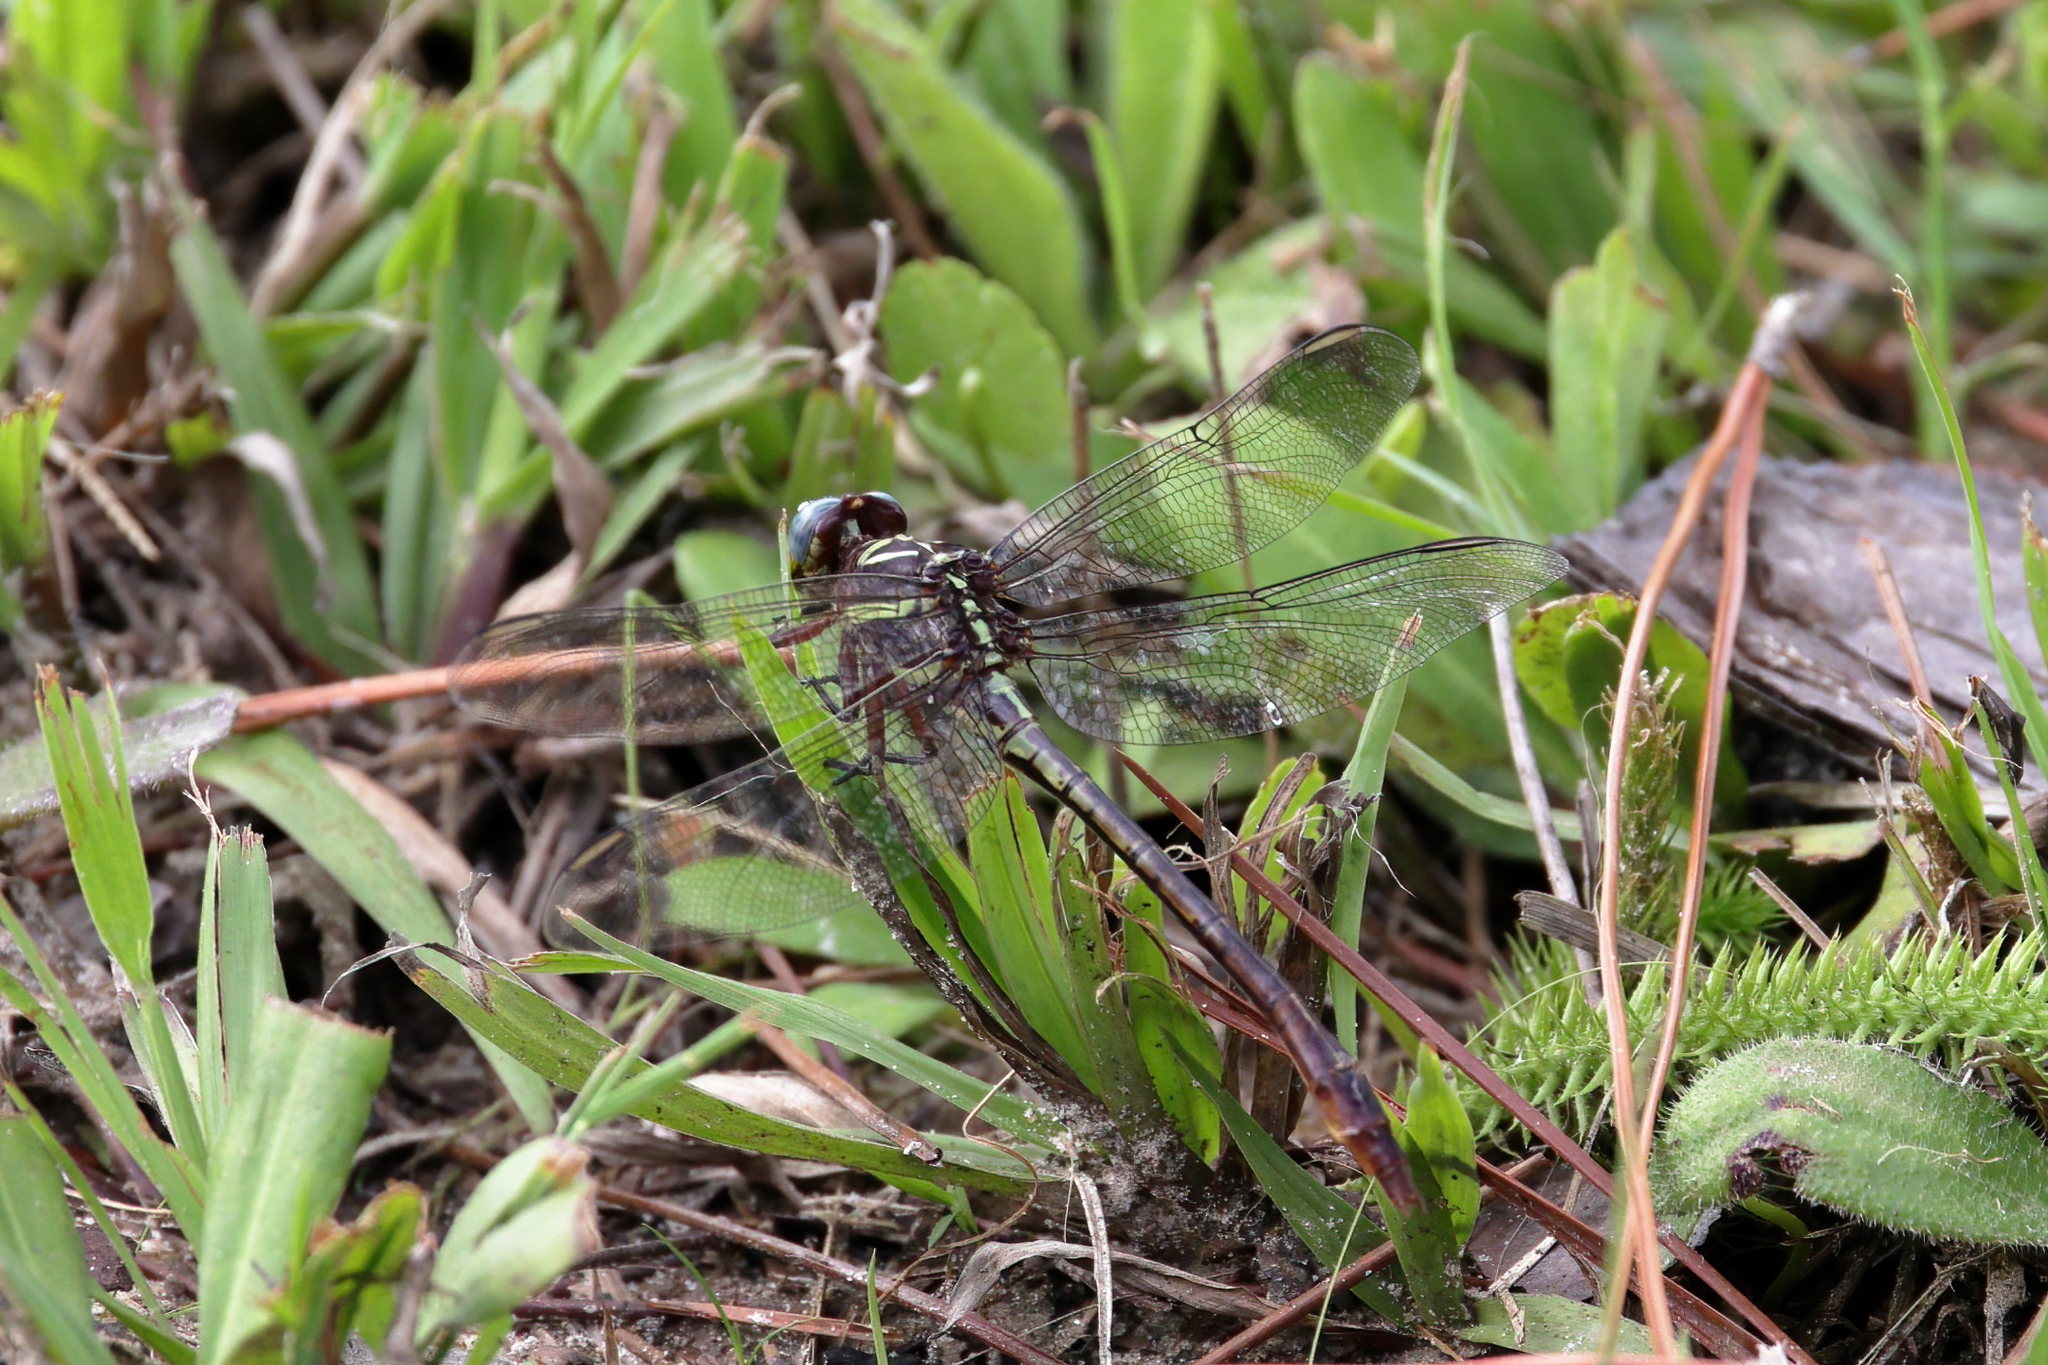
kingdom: Animalia
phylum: Arthropoda
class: Insecta
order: Odonata
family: Gomphidae
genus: Aphylla
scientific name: Aphylla williamsoni
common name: Two-striped forceptail
